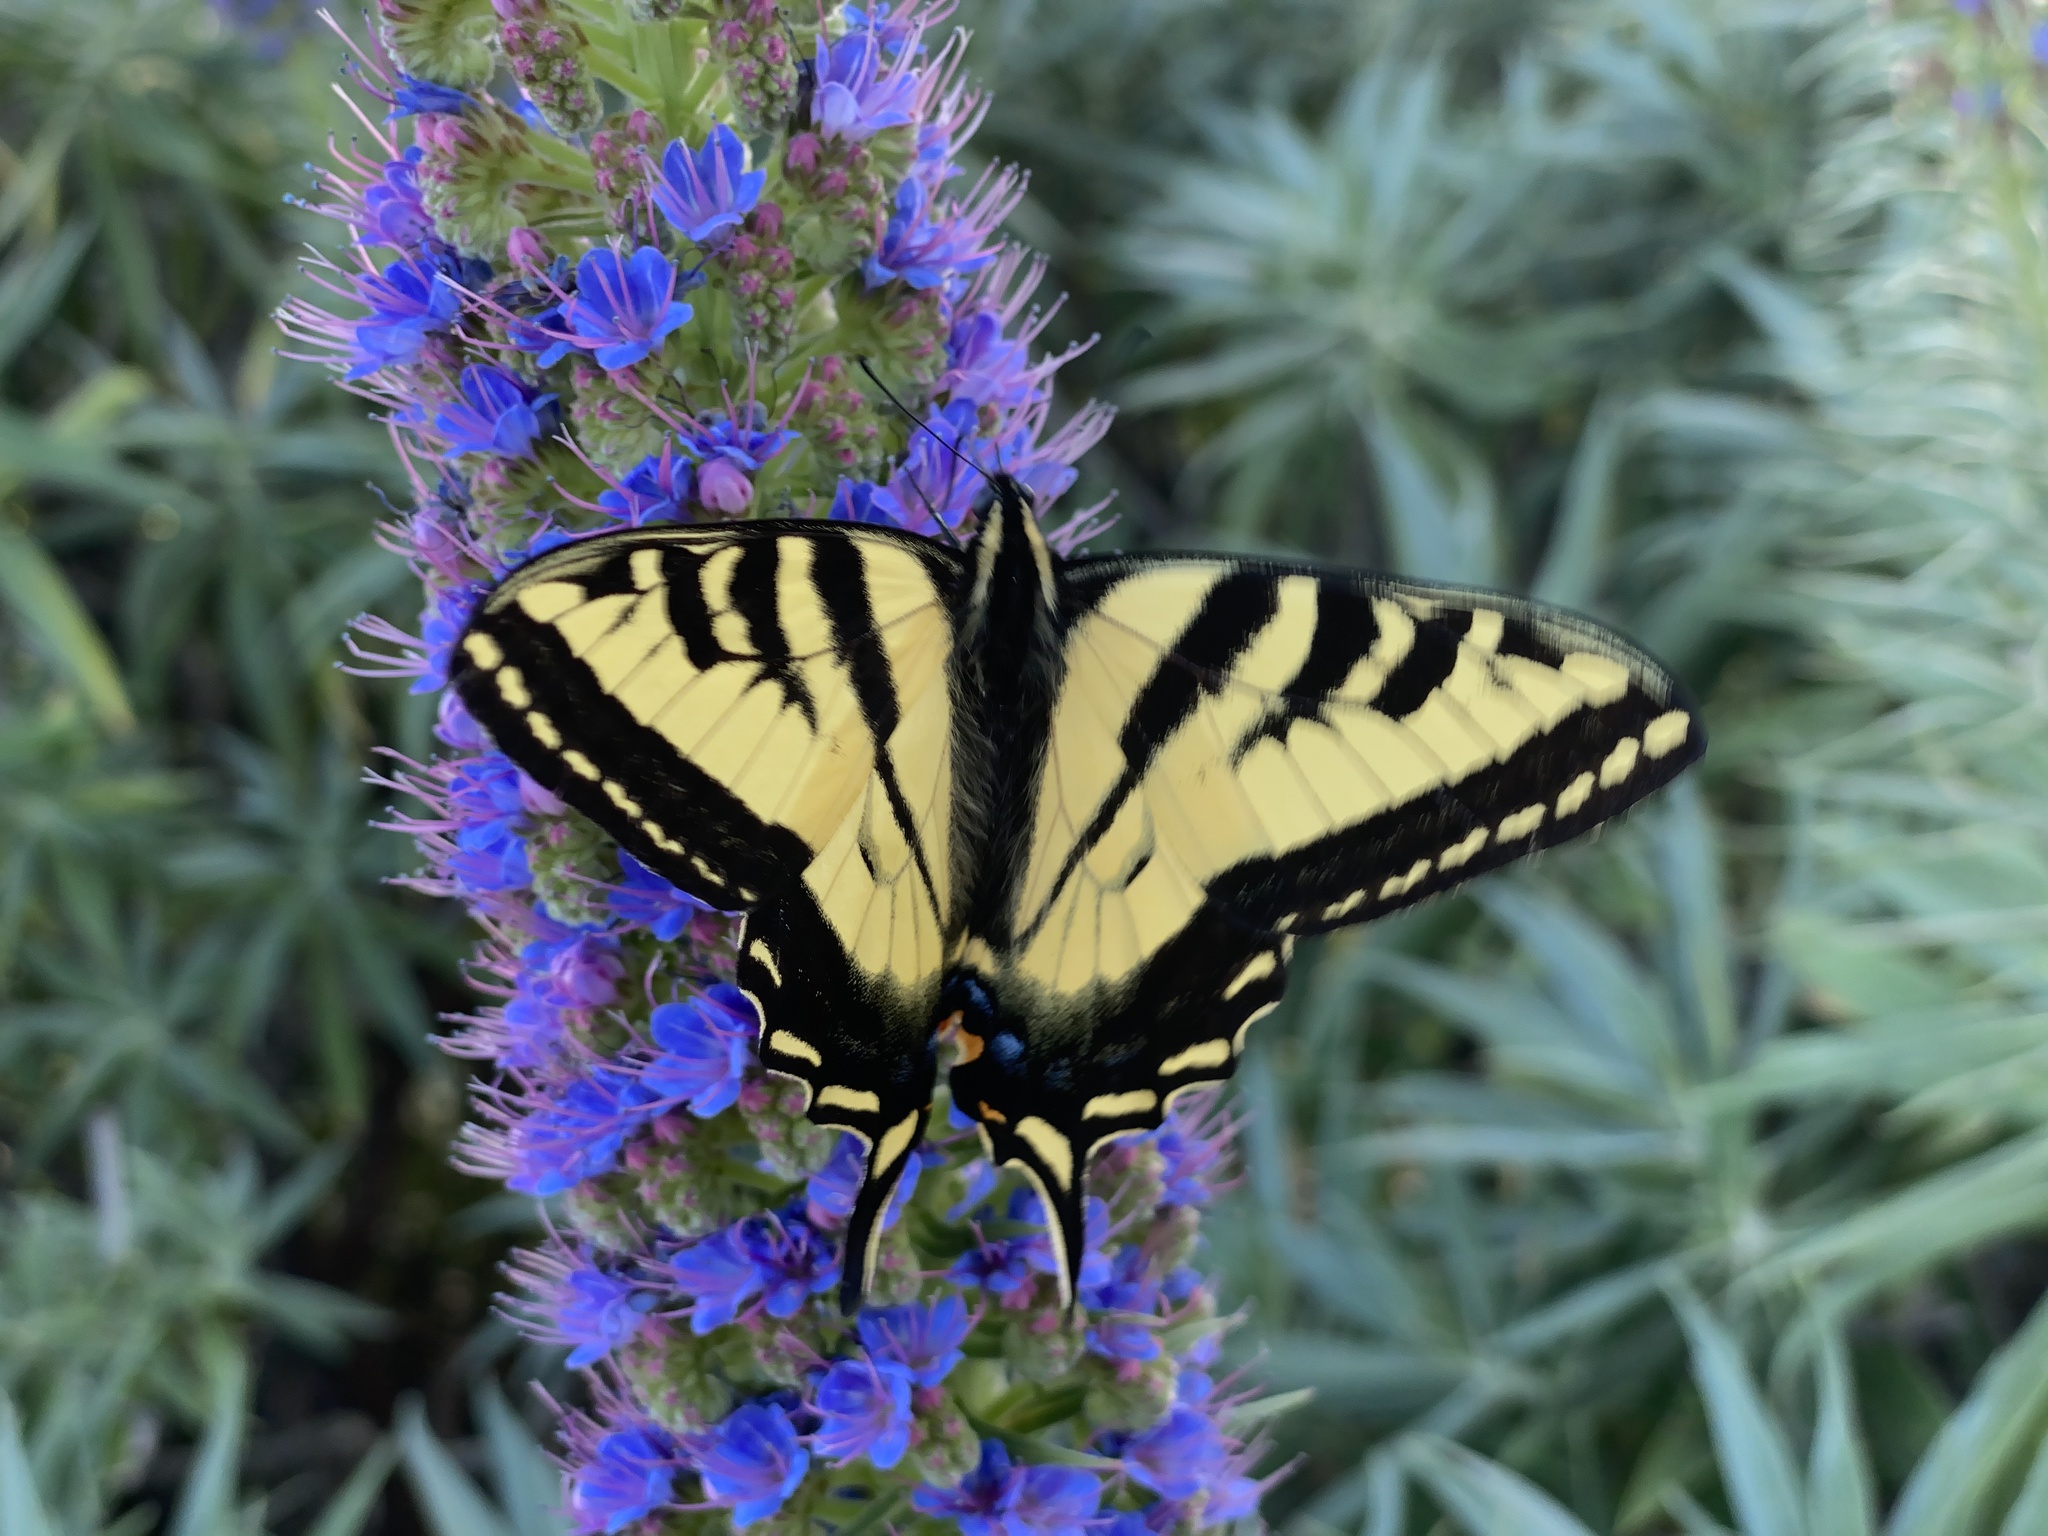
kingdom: Animalia
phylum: Arthropoda
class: Insecta
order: Lepidoptera
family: Papilionidae
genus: Papilio
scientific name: Papilio rutulus
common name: Western tiger swallowtail
